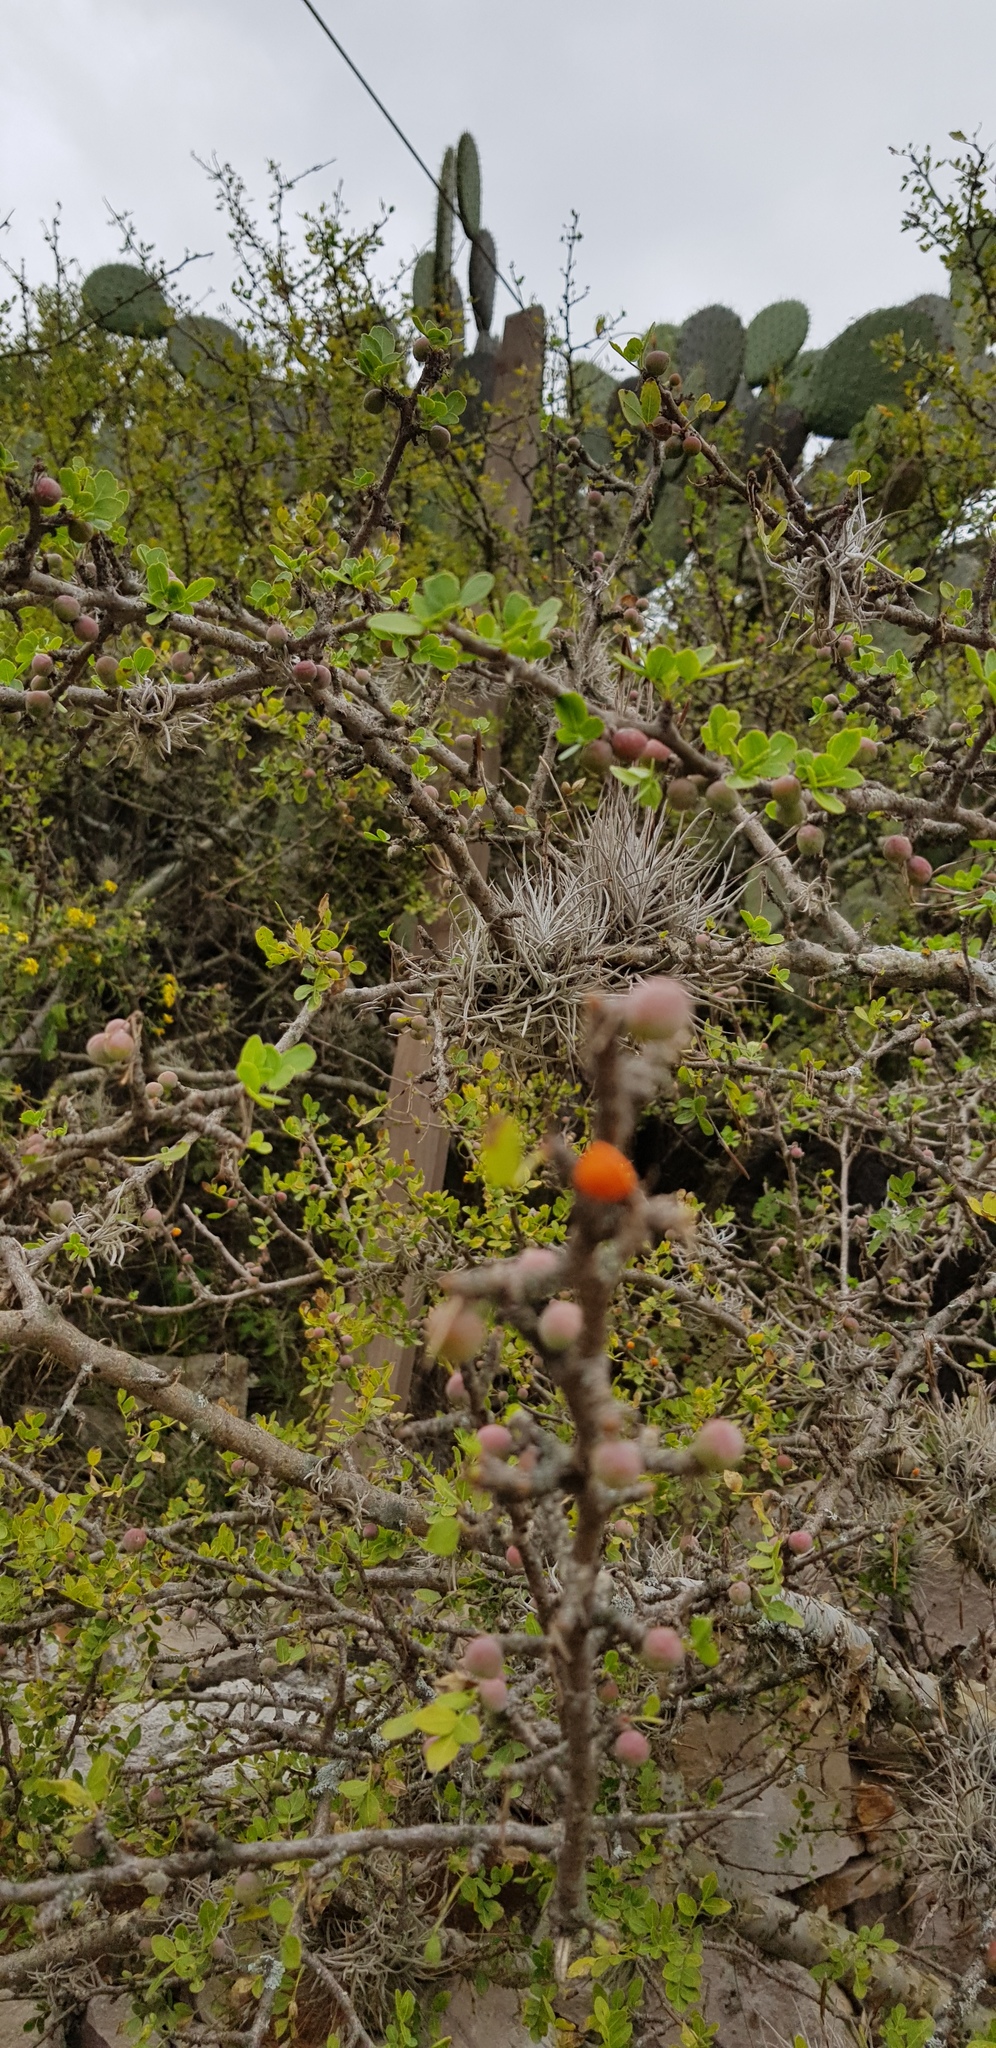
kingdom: Plantae
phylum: Tracheophyta
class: Magnoliopsida
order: Sapindales
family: Burseraceae
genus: Bursera
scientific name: Bursera fagaroides
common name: Elephant tree
